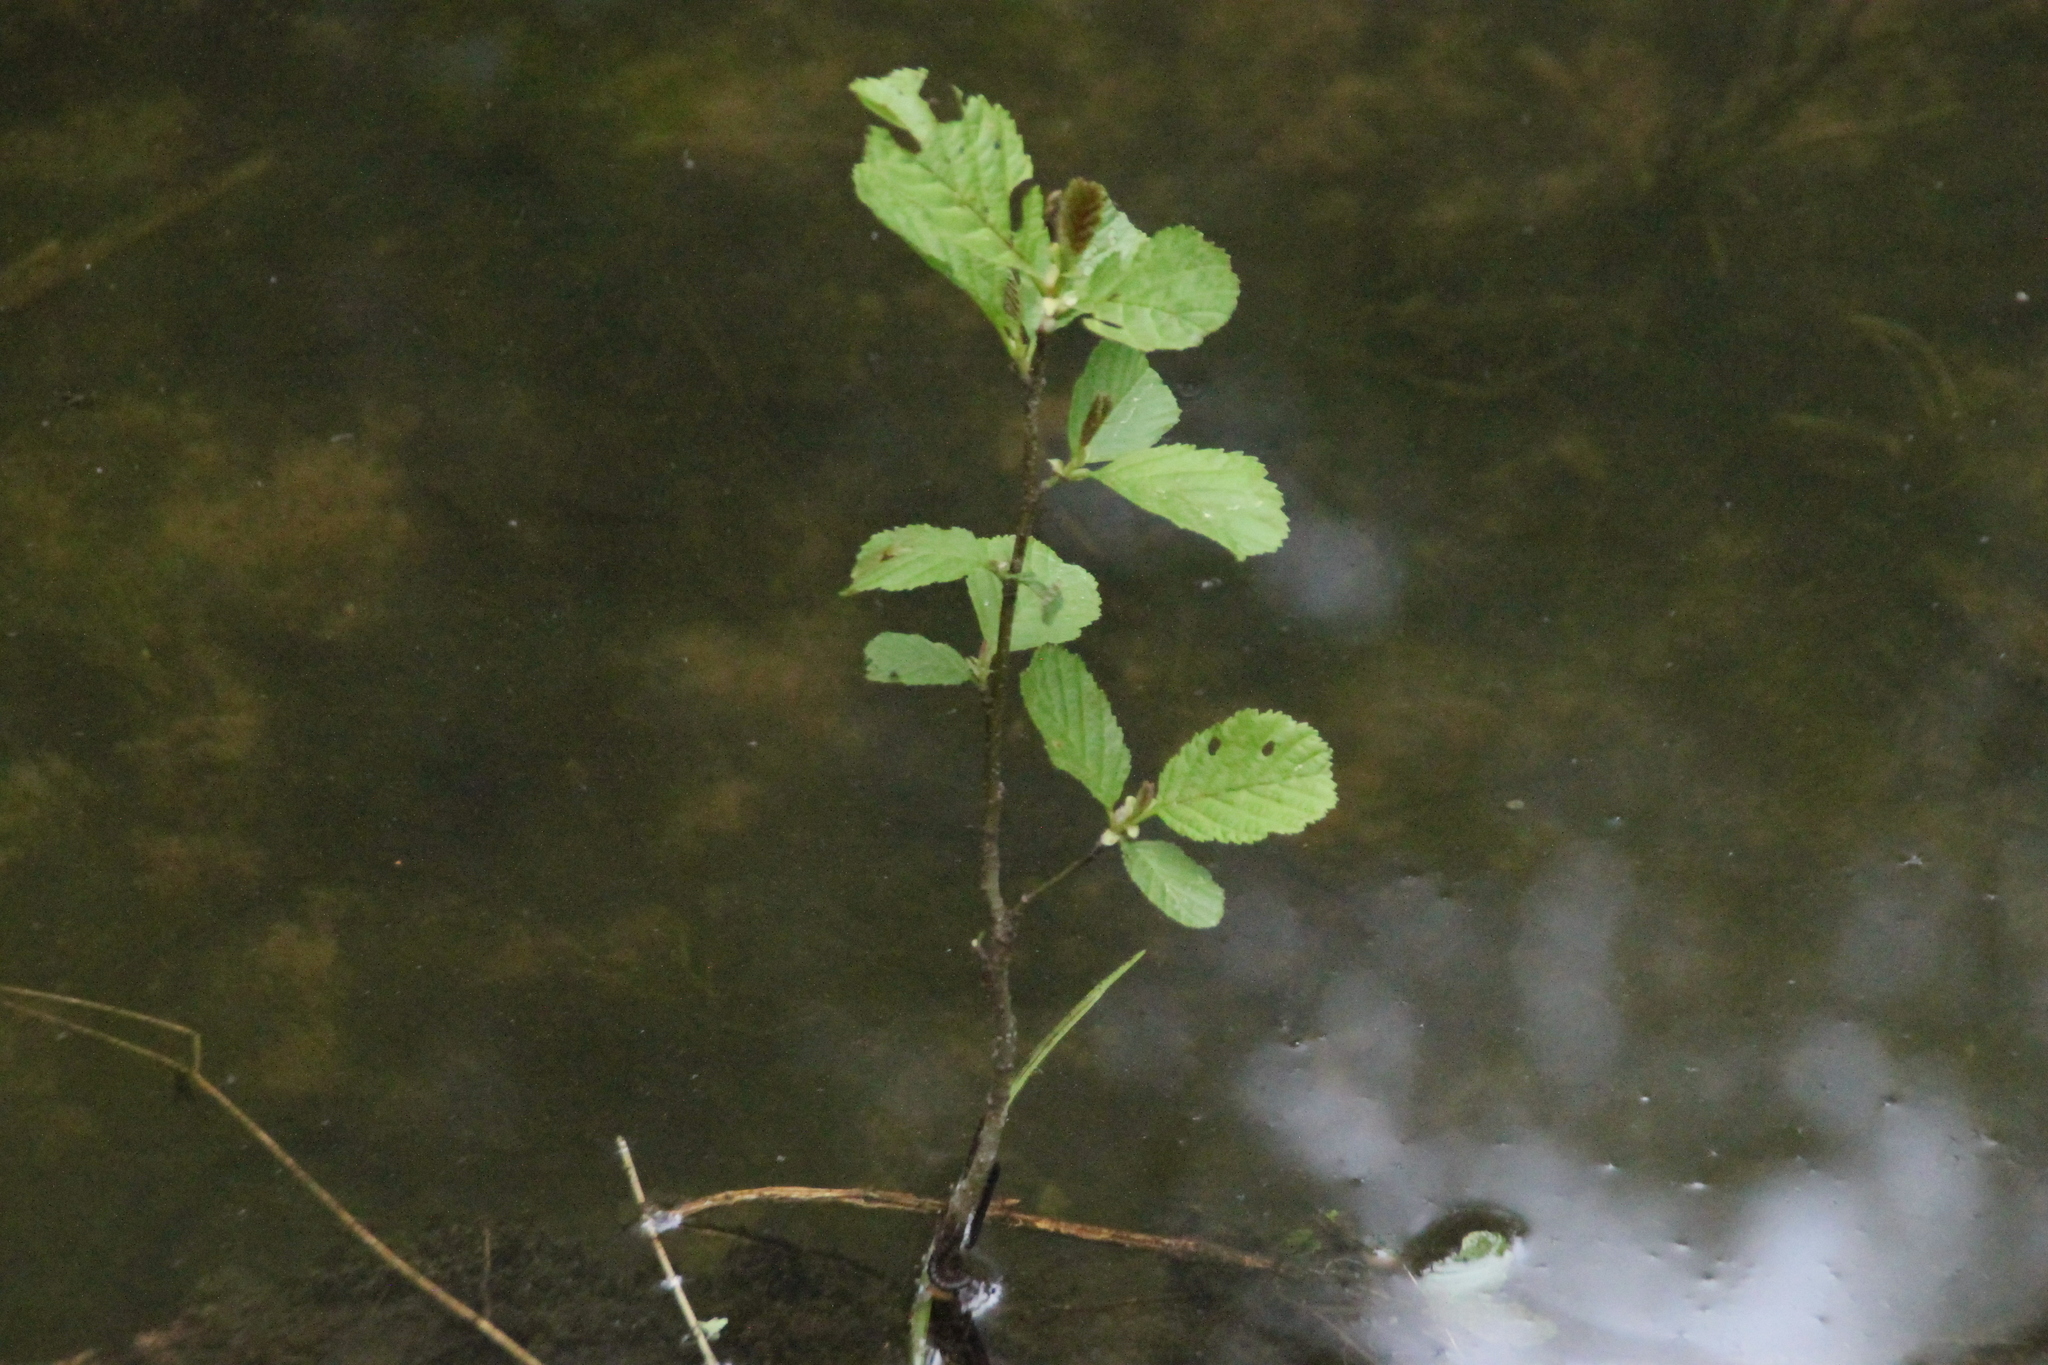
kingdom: Plantae
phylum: Tracheophyta
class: Magnoliopsida
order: Fagales
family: Betulaceae
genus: Alnus
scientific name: Alnus glutinosa
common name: Black alder
